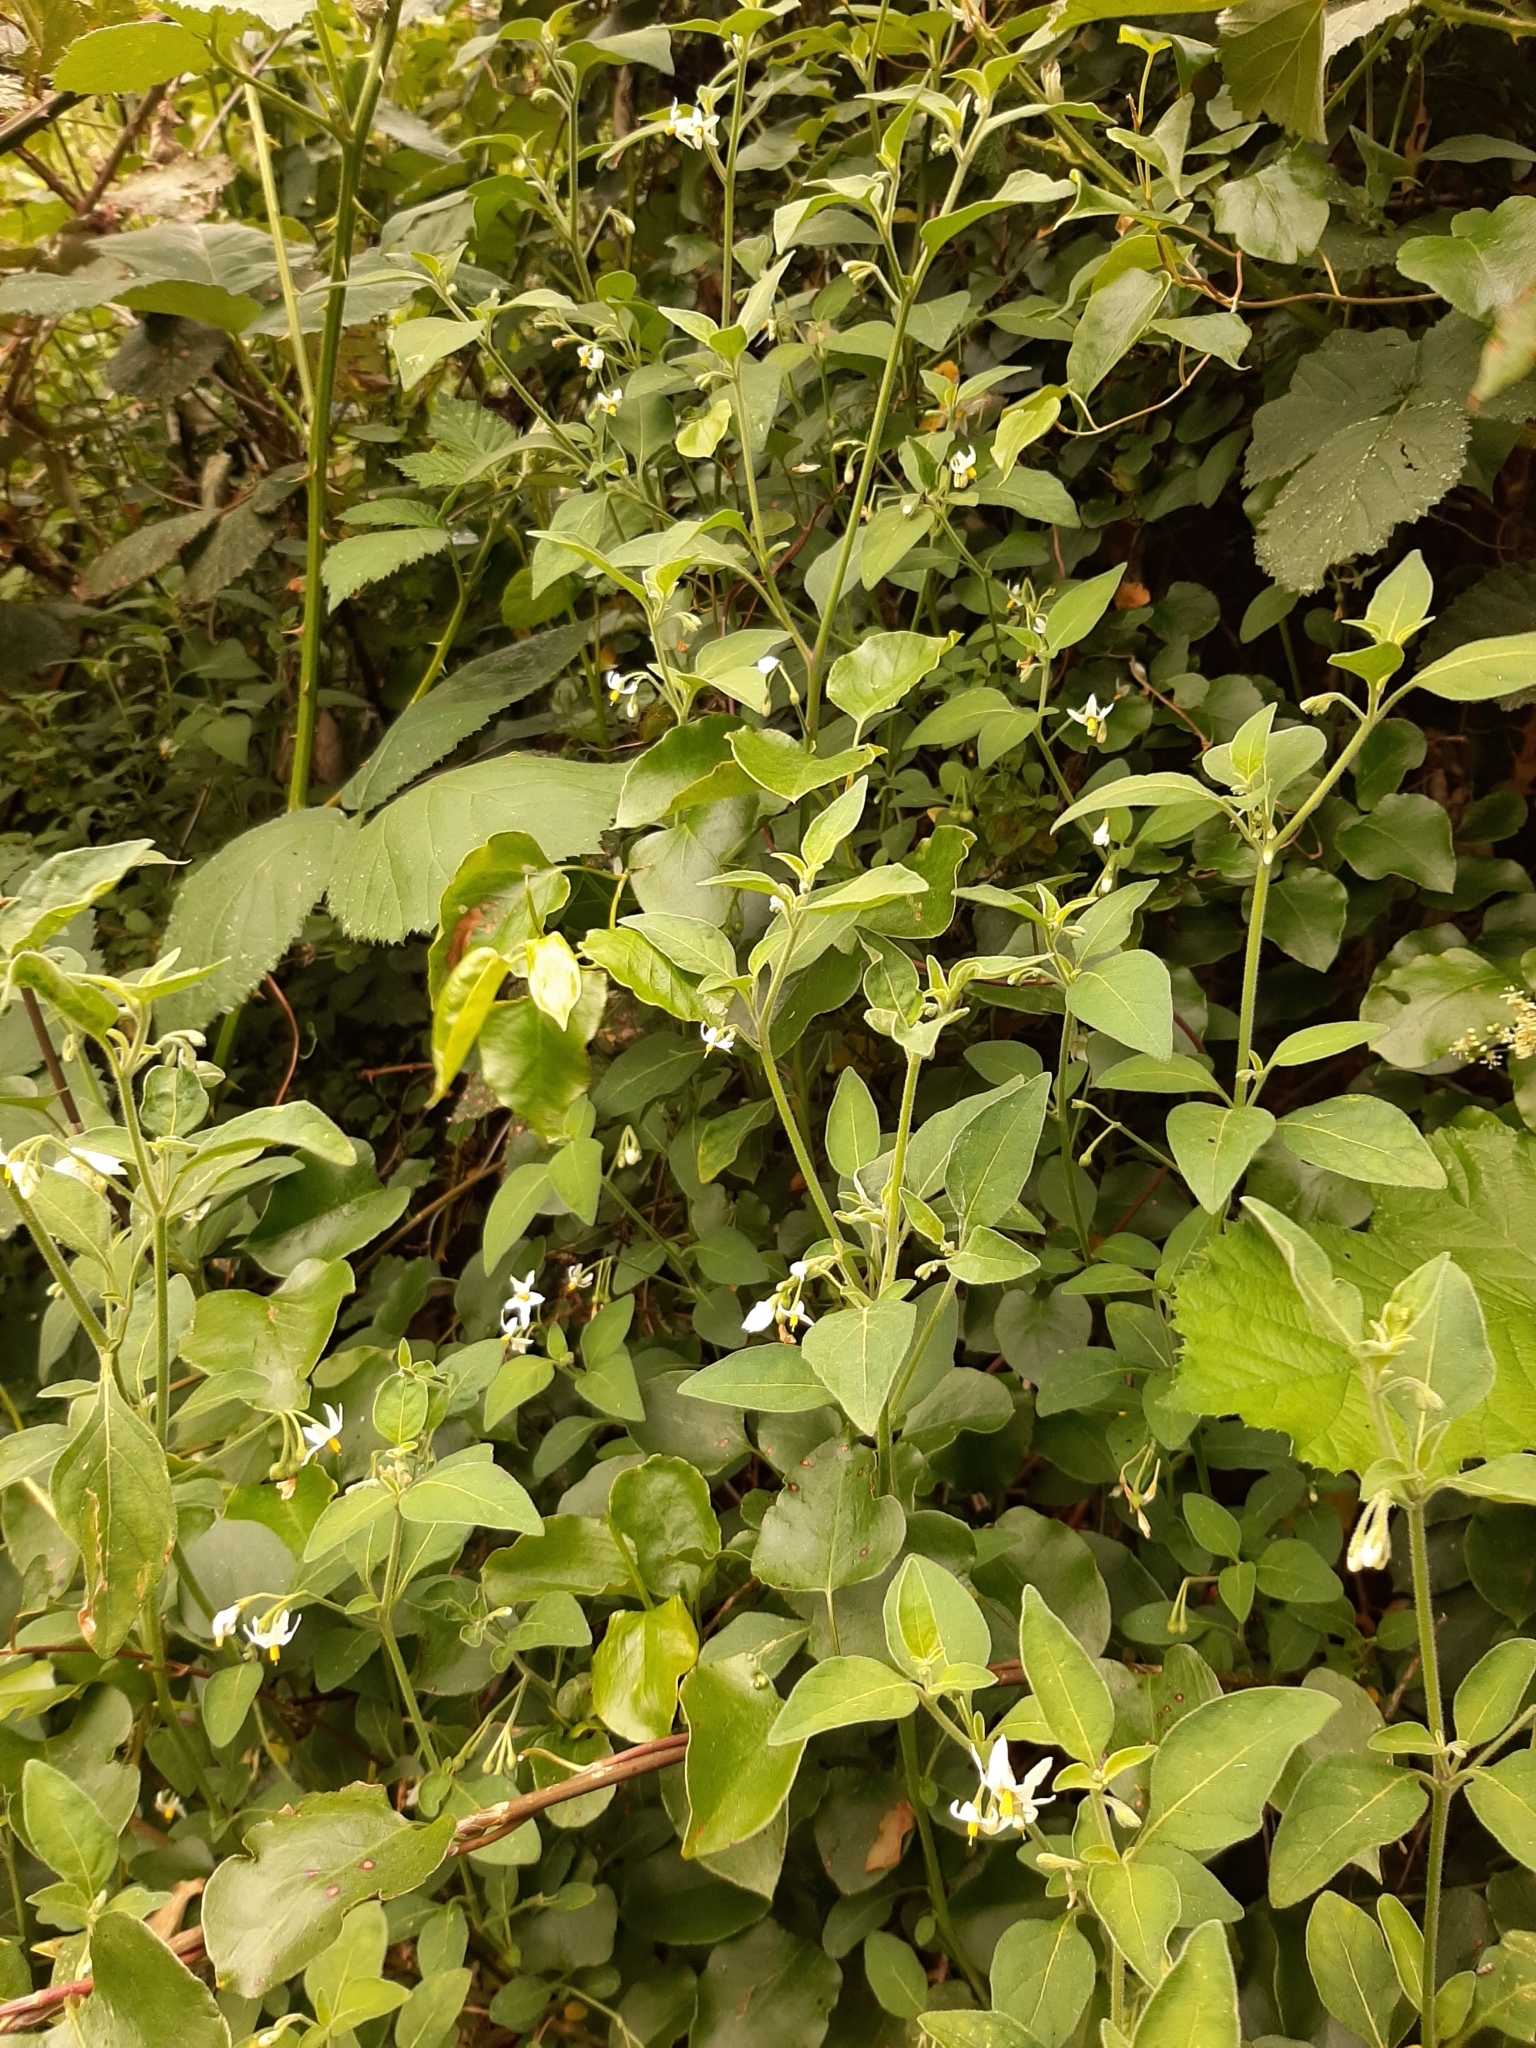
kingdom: Plantae
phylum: Tracheophyta
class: Magnoliopsida
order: Solanales
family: Solanaceae
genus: Solanum
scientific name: Solanum chenopodioides
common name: Tall nightshade
